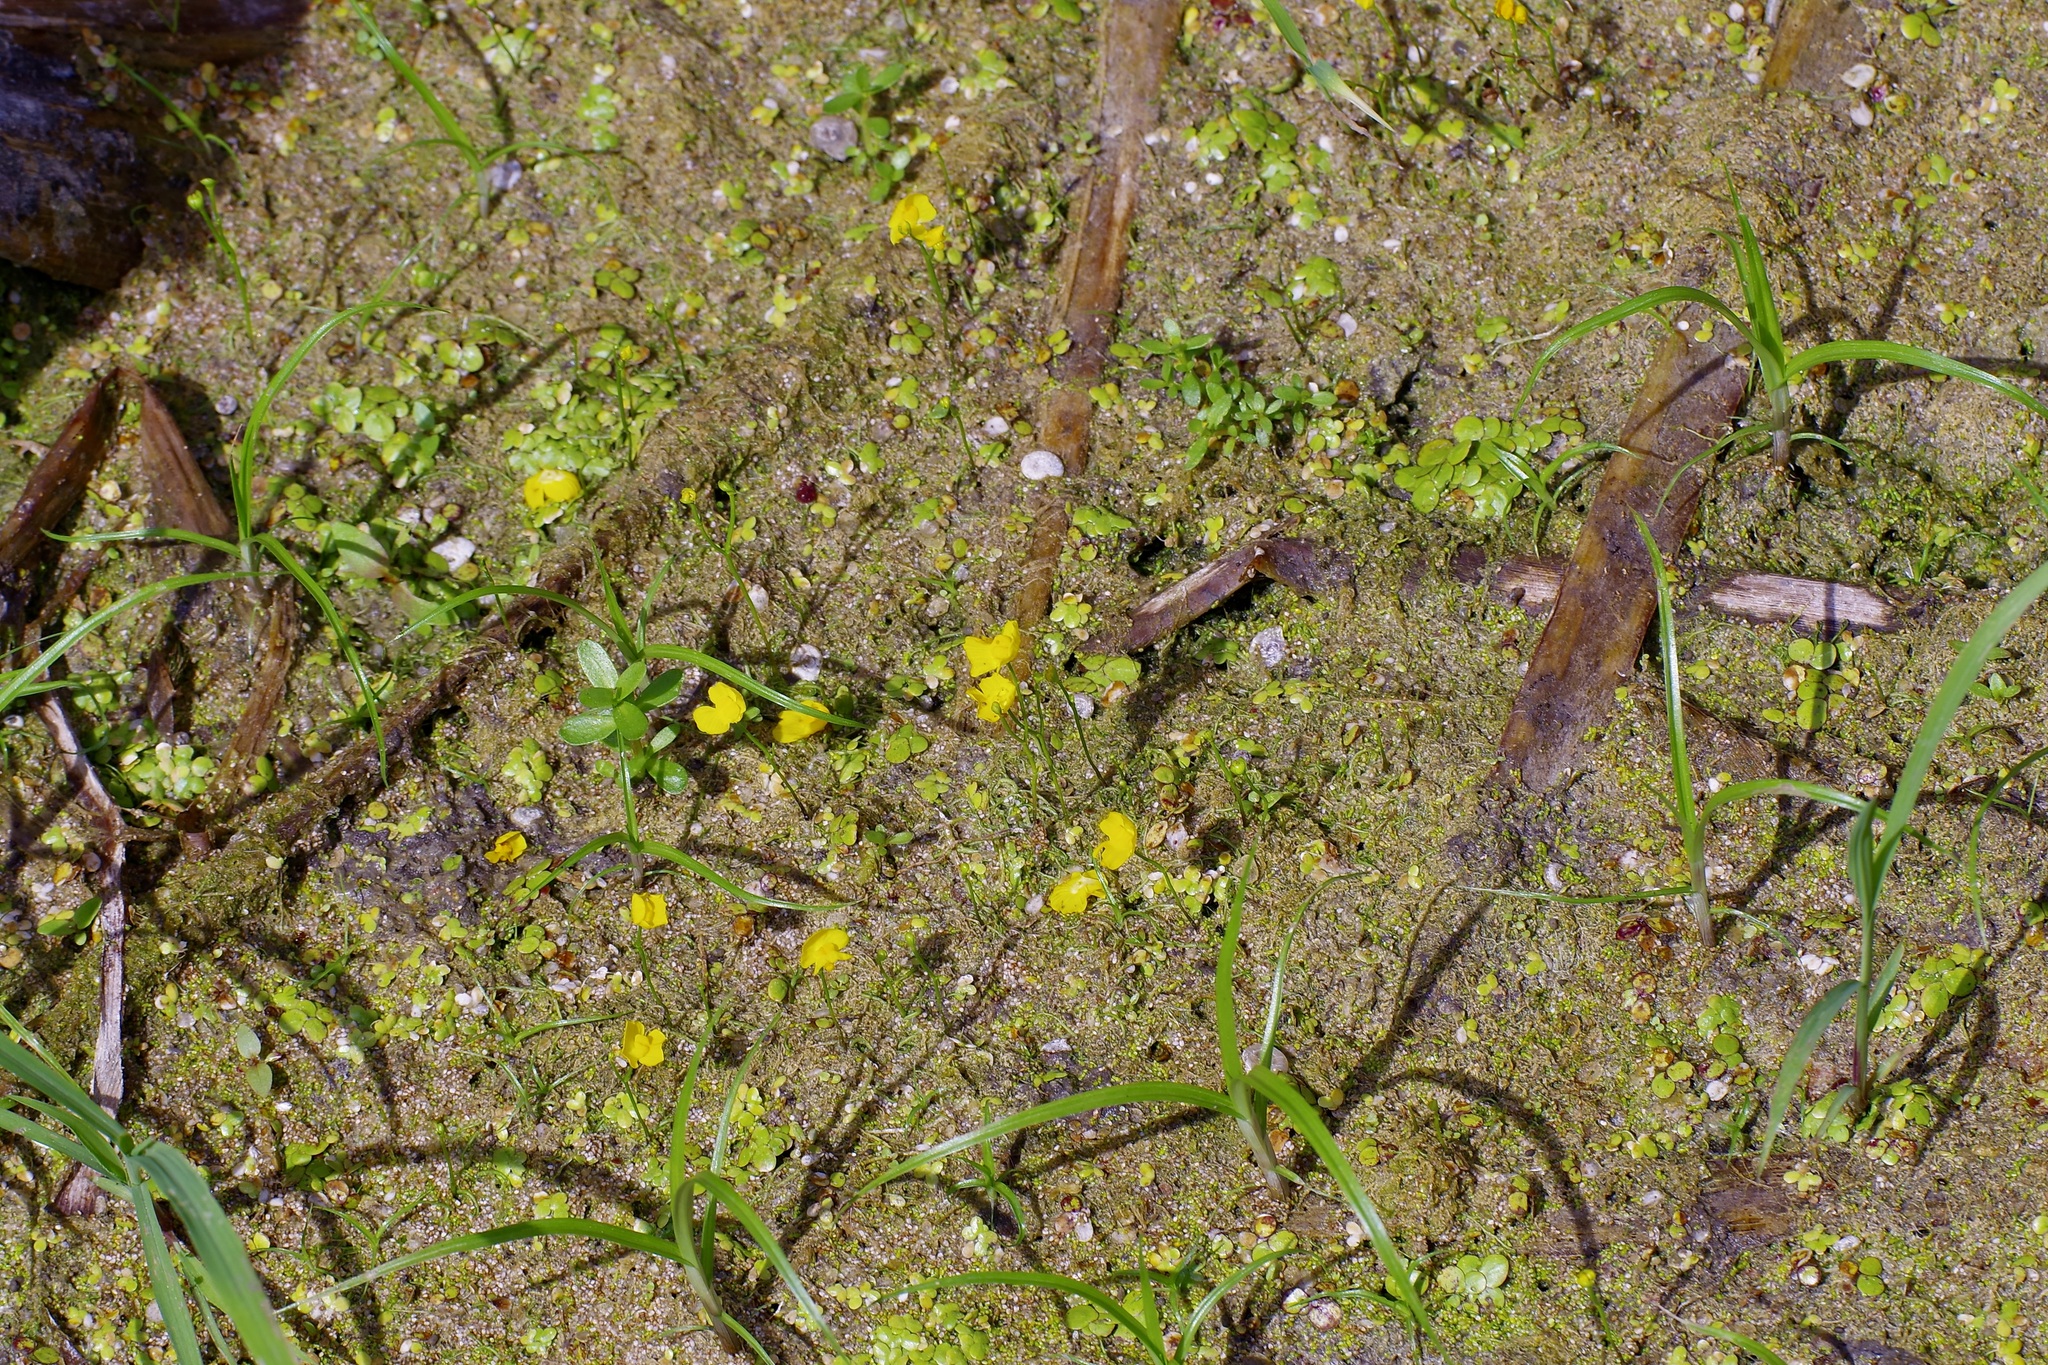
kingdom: Plantae
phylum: Tracheophyta
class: Magnoliopsida
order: Lamiales
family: Lentibulariaceae
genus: Utricularia
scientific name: Utricularia gibba
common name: Humped bladderwort
